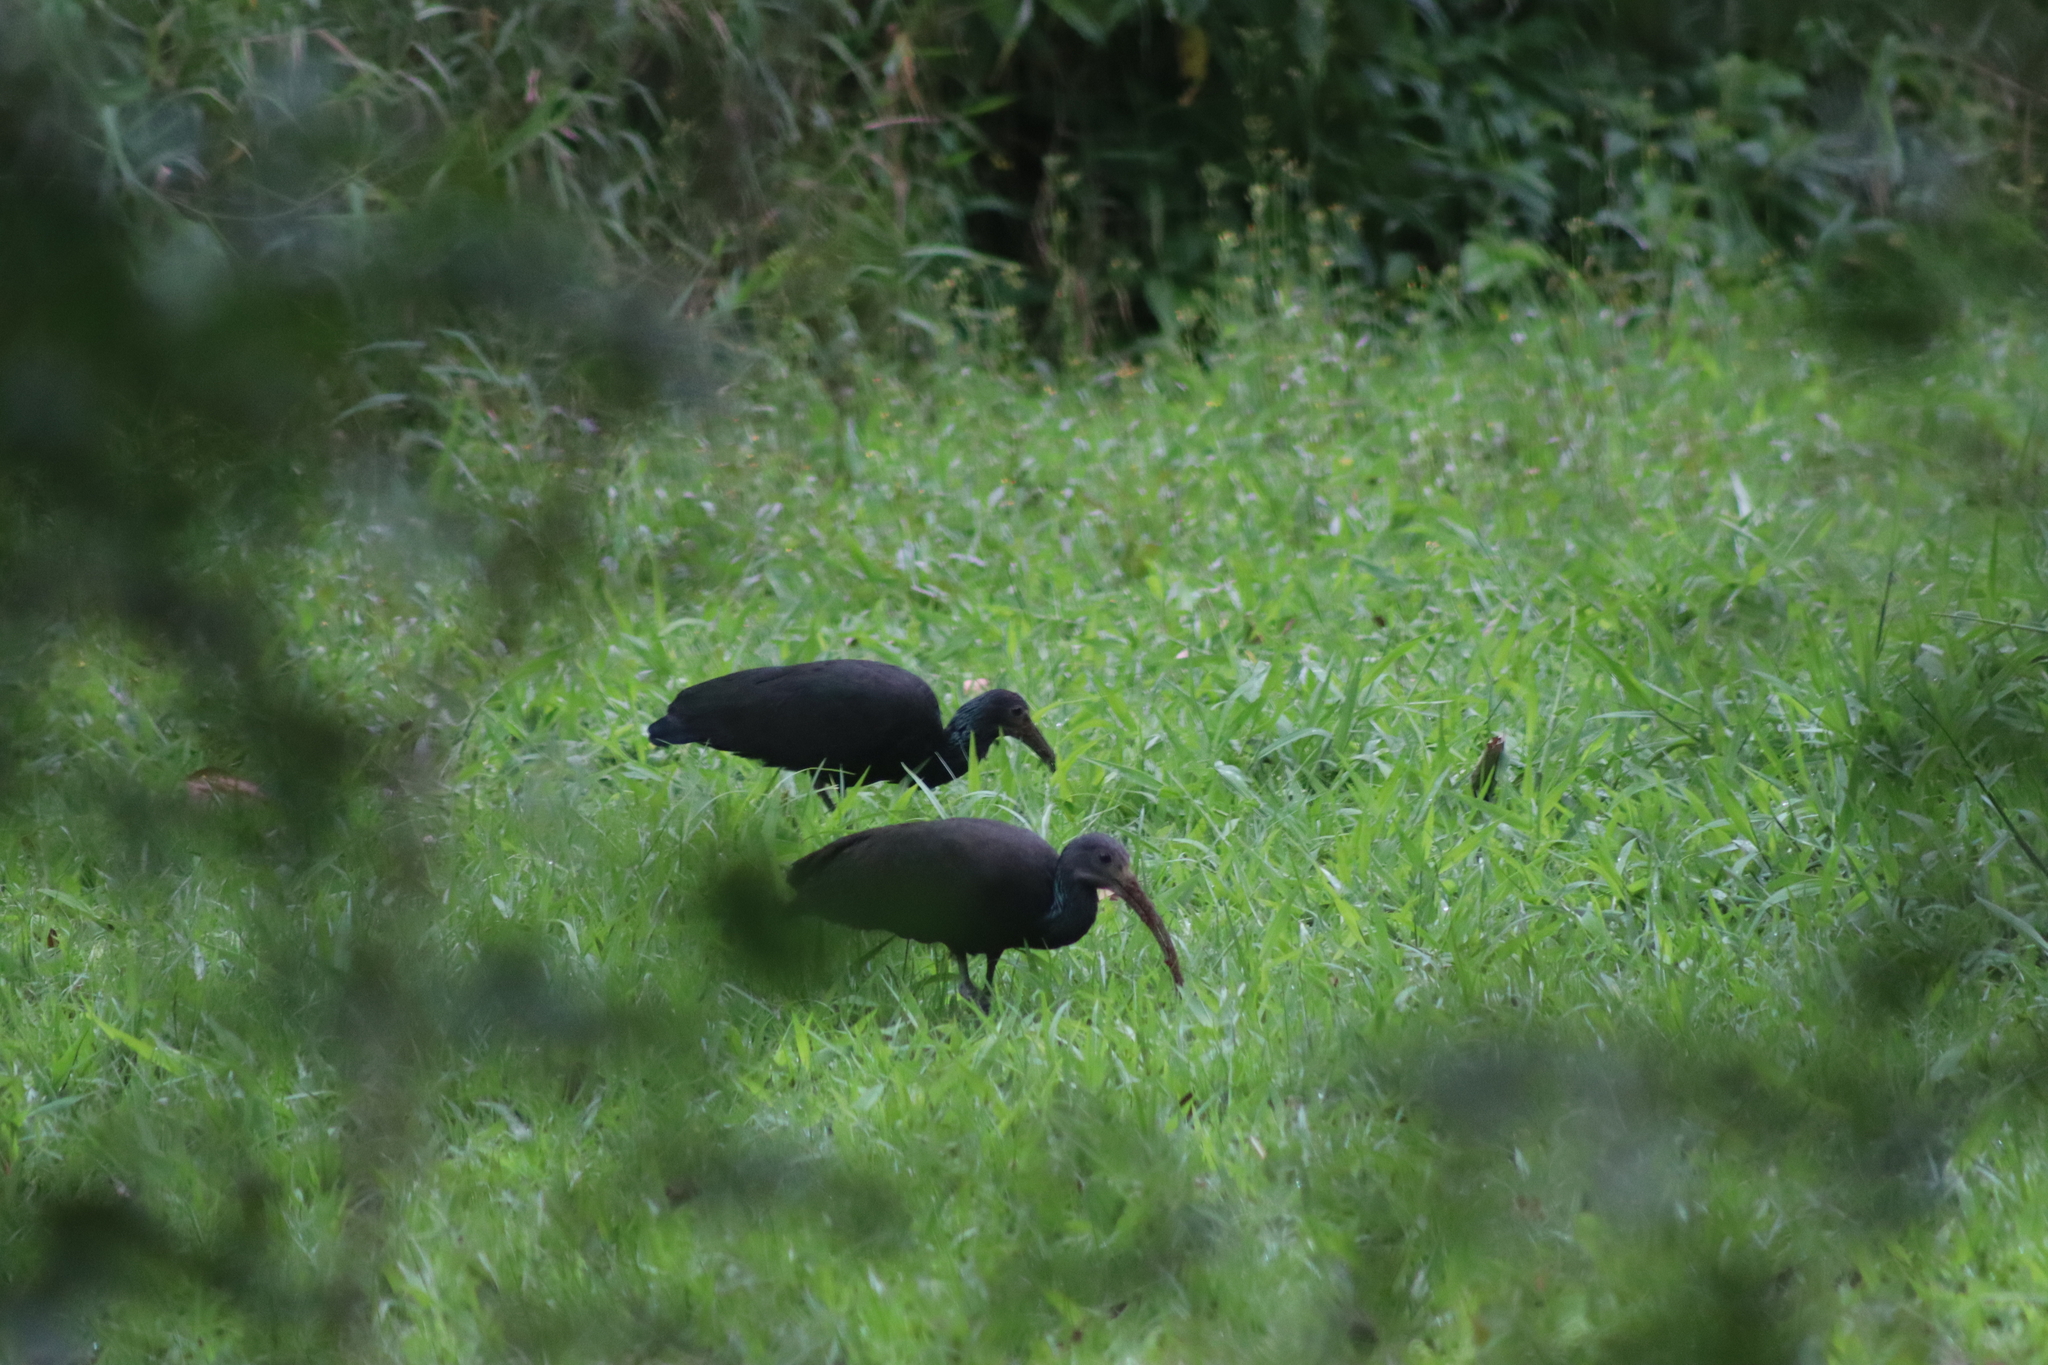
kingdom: Animalia
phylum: Chordata
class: Aves
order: Pelecaniformes
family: Threskiornithidae
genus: Mesembrinibis
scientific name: Mesembrinibis cayennensis
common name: Green ibis
